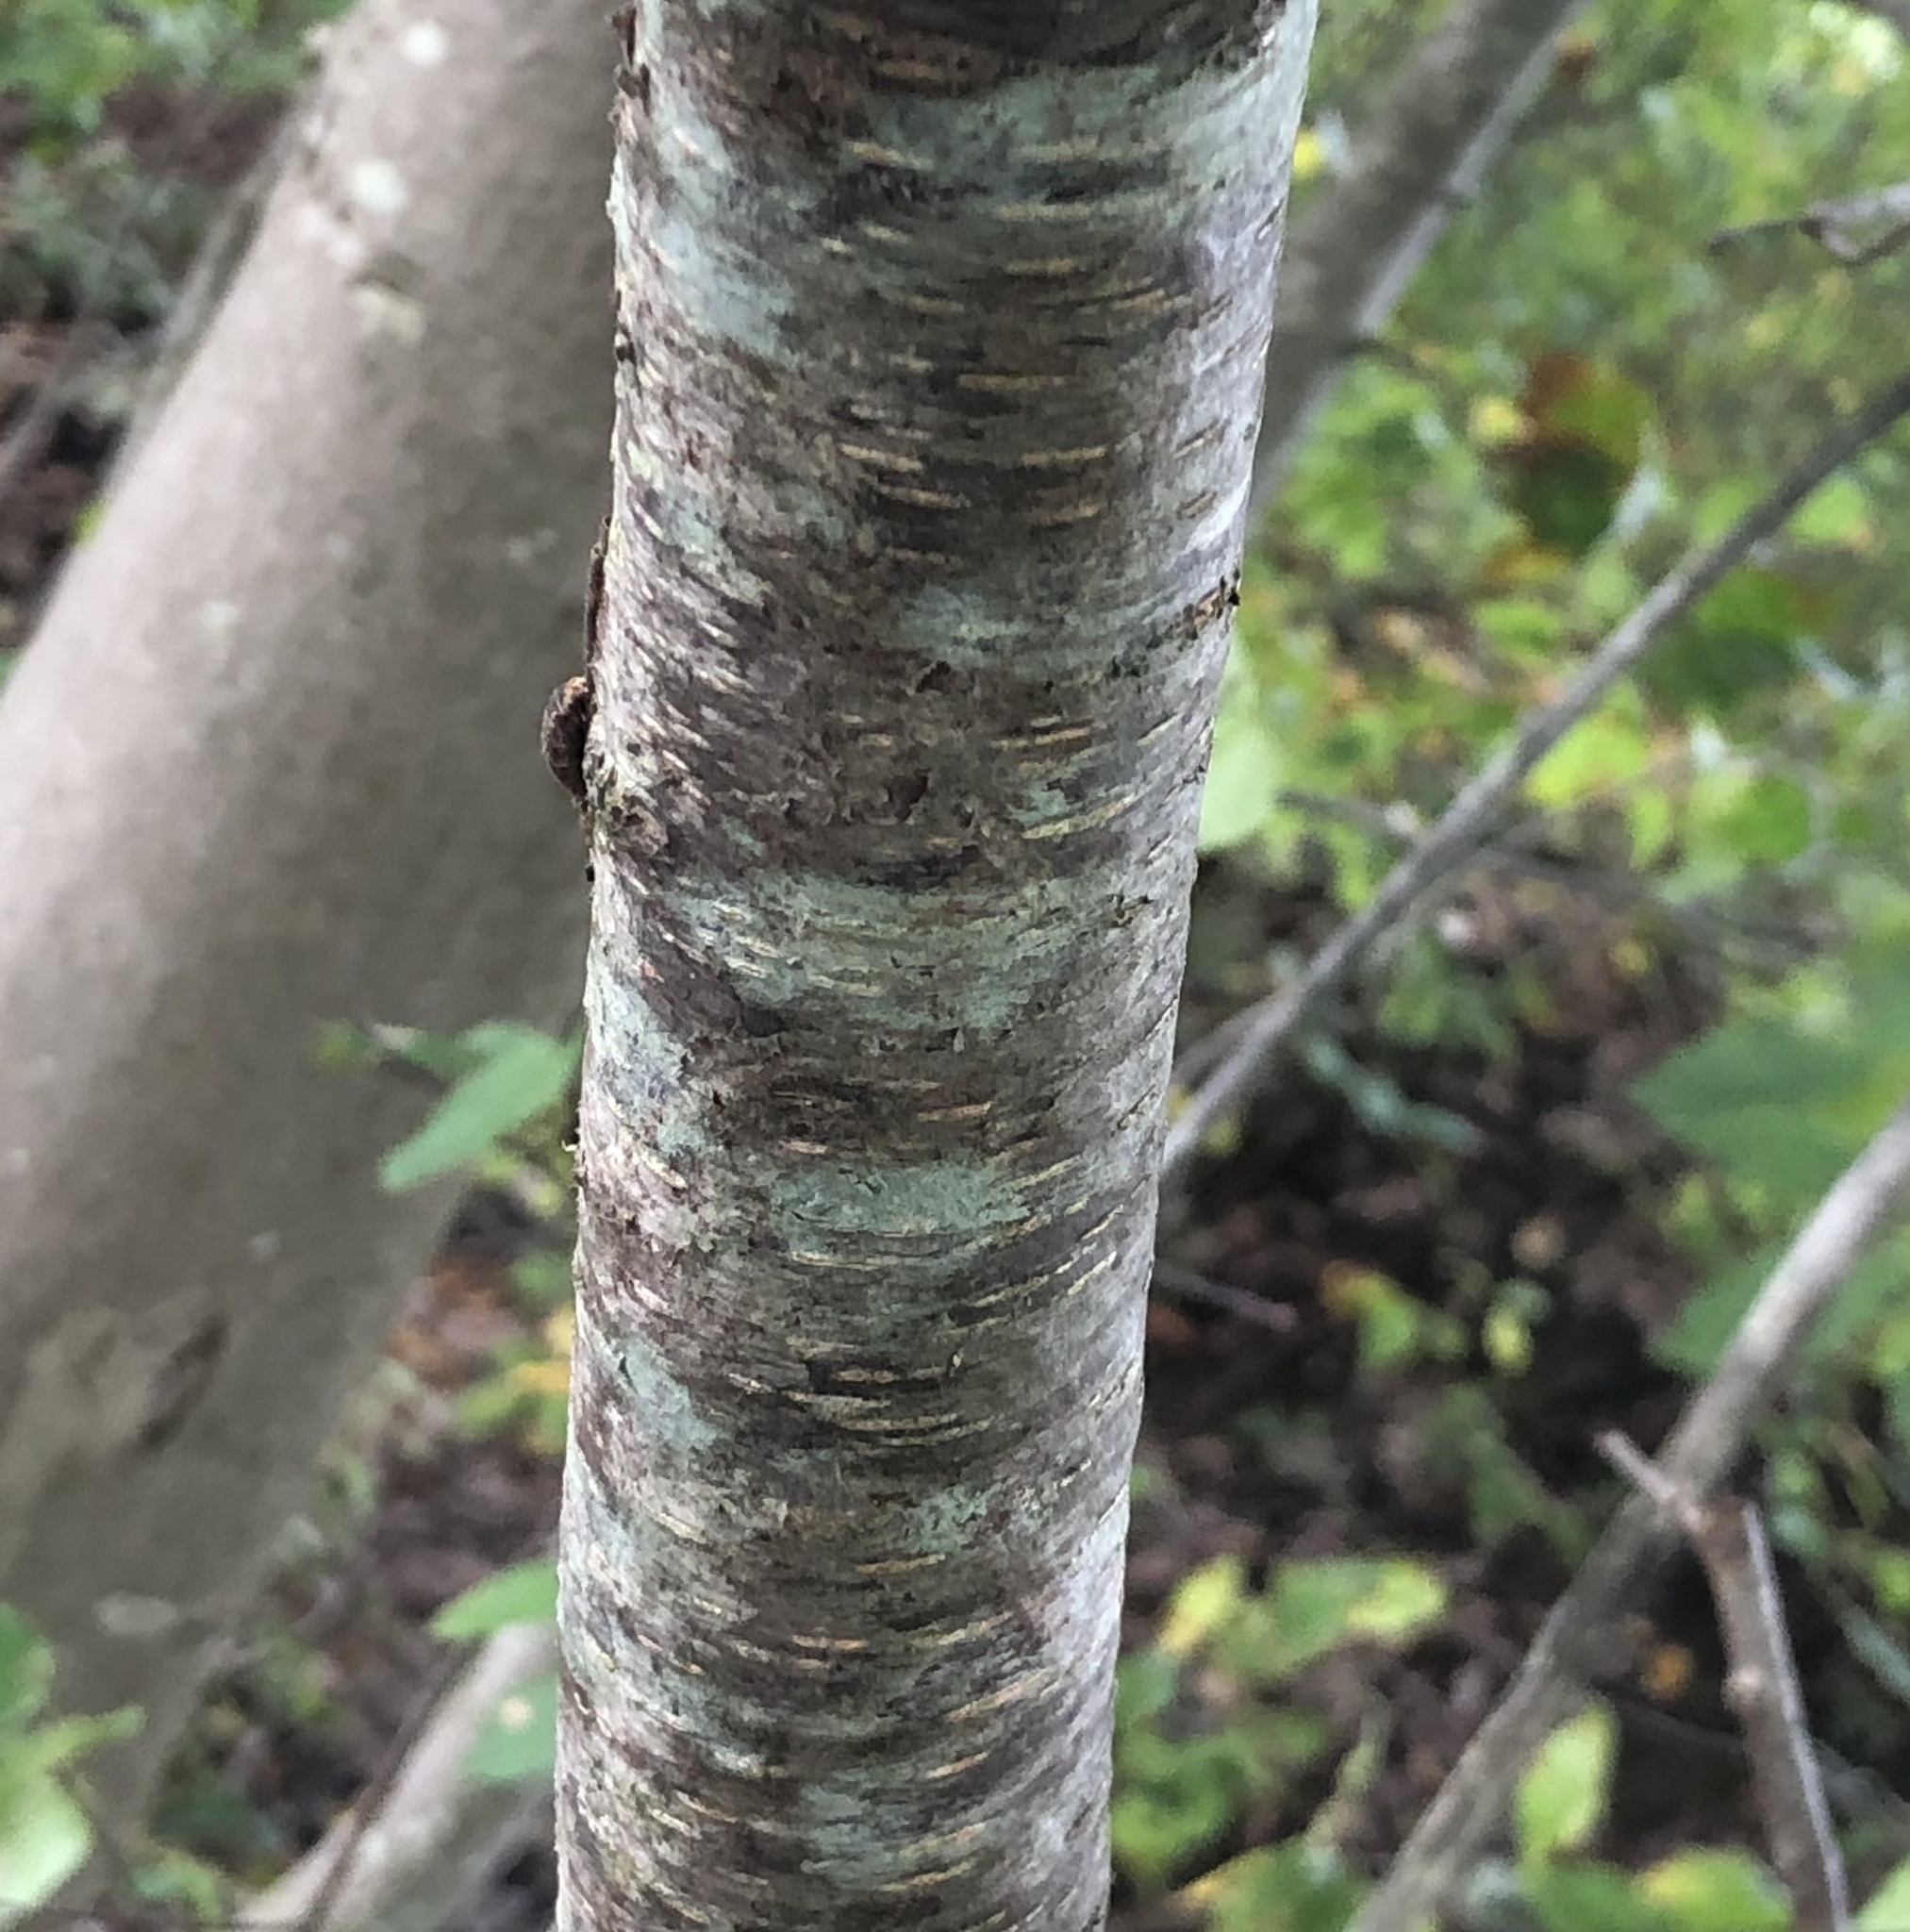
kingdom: Plantae
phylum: Tracheophyta
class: Magnoliopsida
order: Rosales
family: Rosaceae
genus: Prunus
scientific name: Prunus serotina
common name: Black cherry
